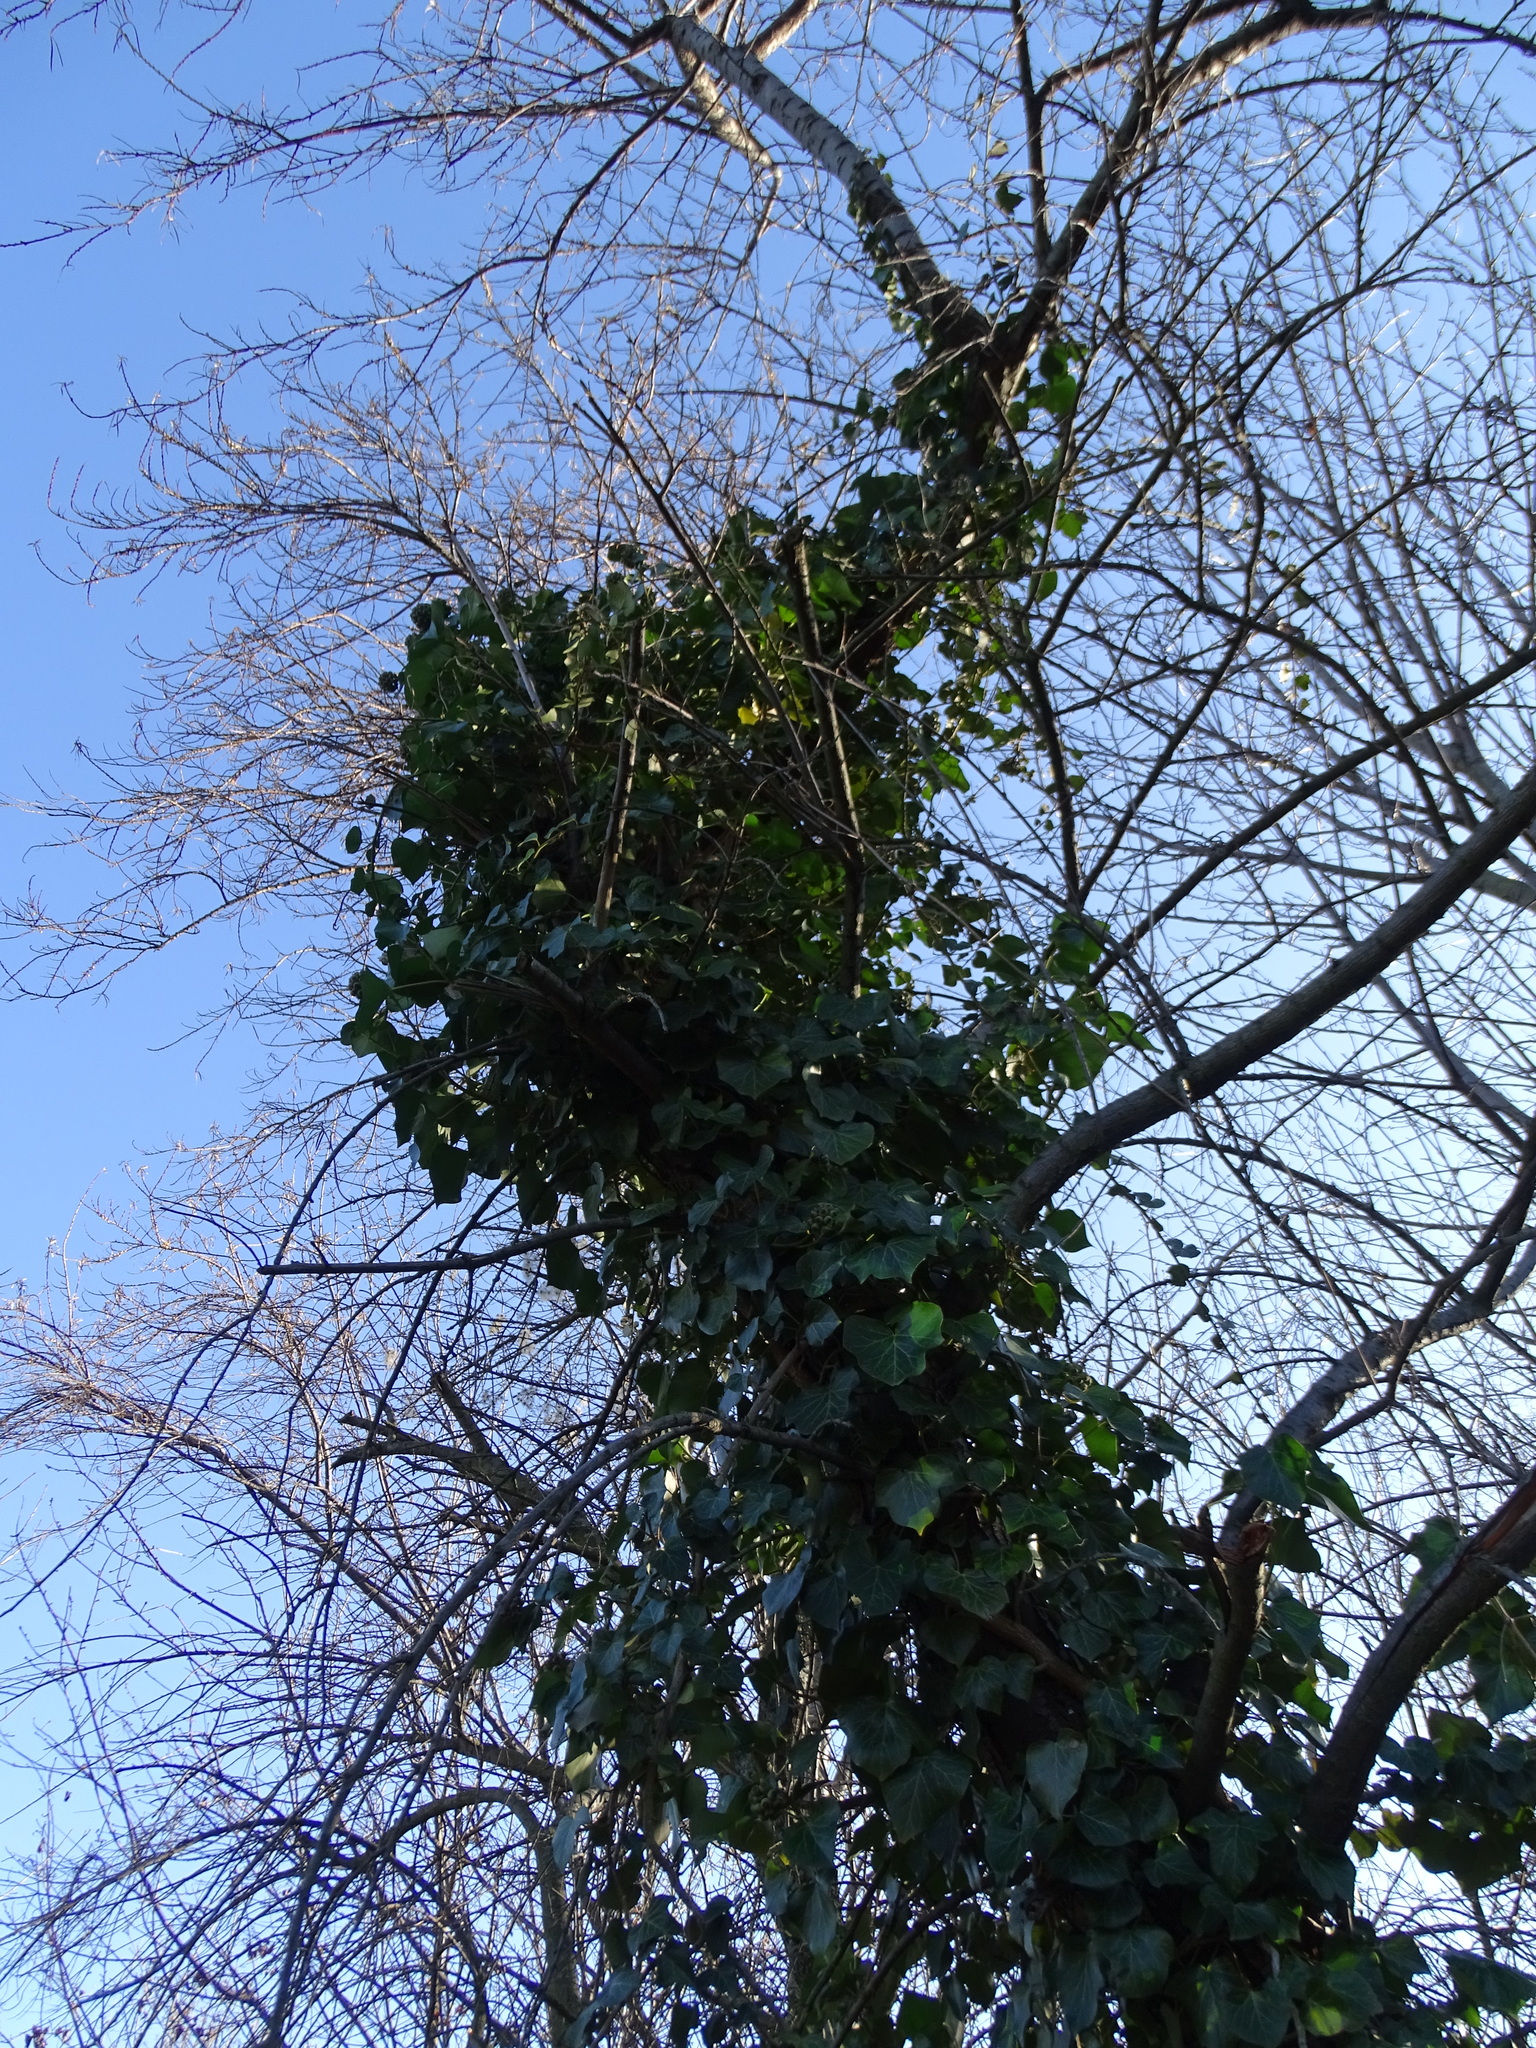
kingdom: Plantae
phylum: Tracheophyta
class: Magnoliopsida
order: Apiales
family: Araliaceae
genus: Hedera
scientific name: Hedera helix
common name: Ivy
